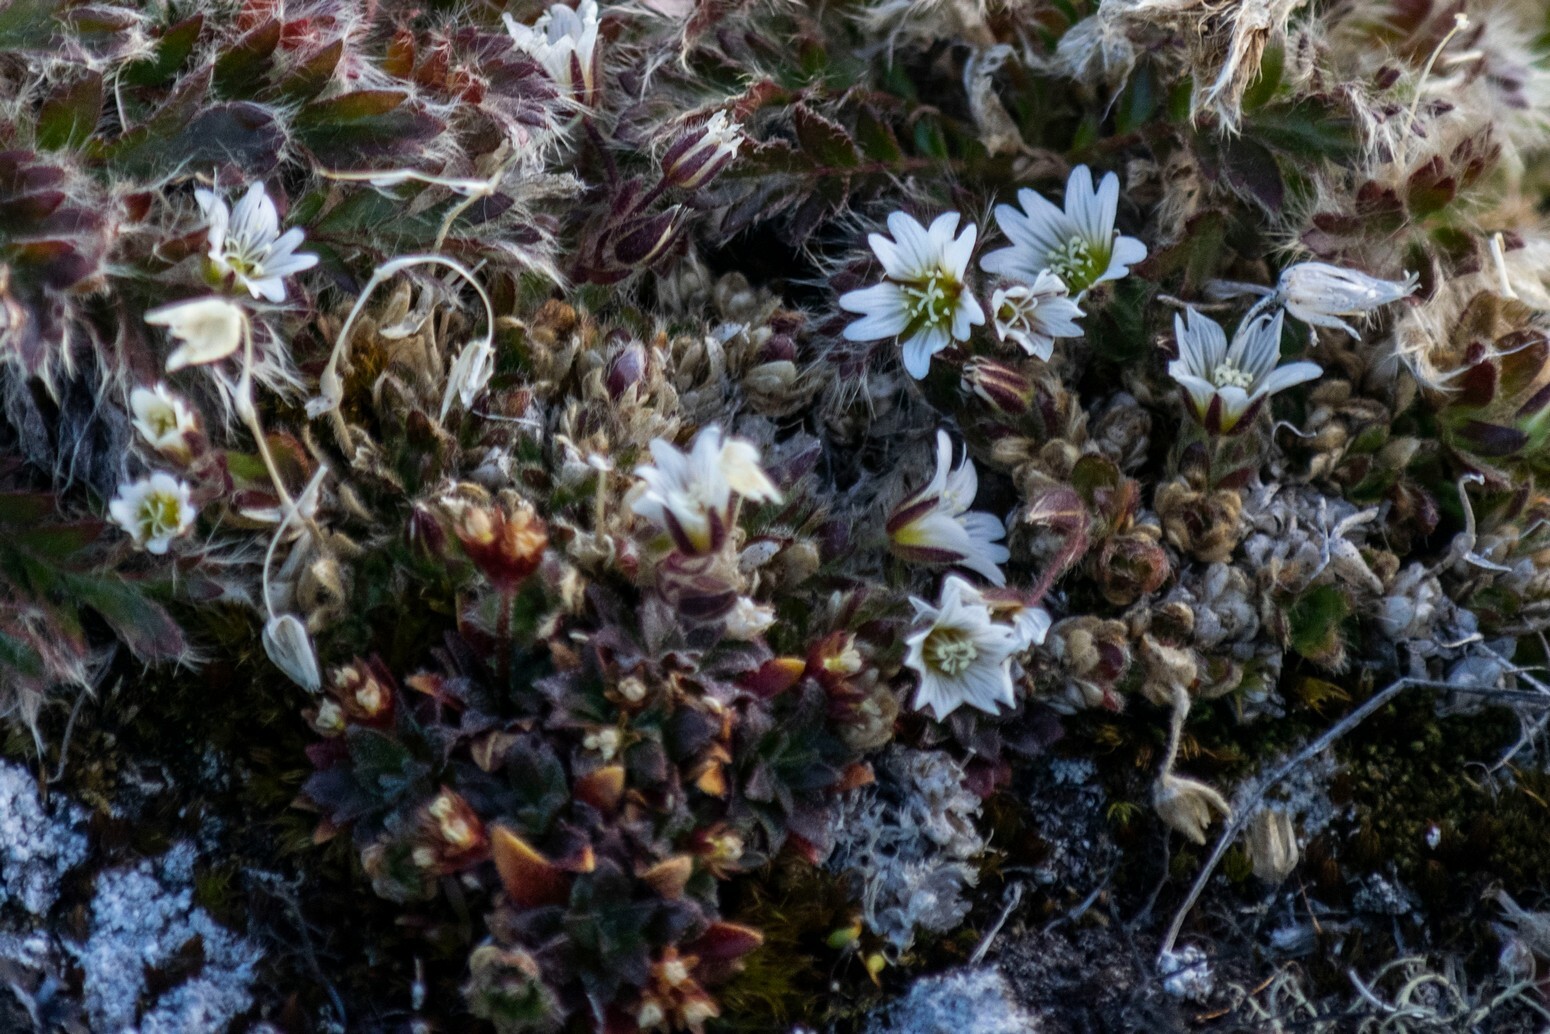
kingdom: Plantae
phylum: Tracheophyta
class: Magnoliopsida
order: Caryophyllales
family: Caryophyllaceae
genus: Cerastium
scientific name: Cerastium beeringianum
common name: Bering mouse-ear chickweed
